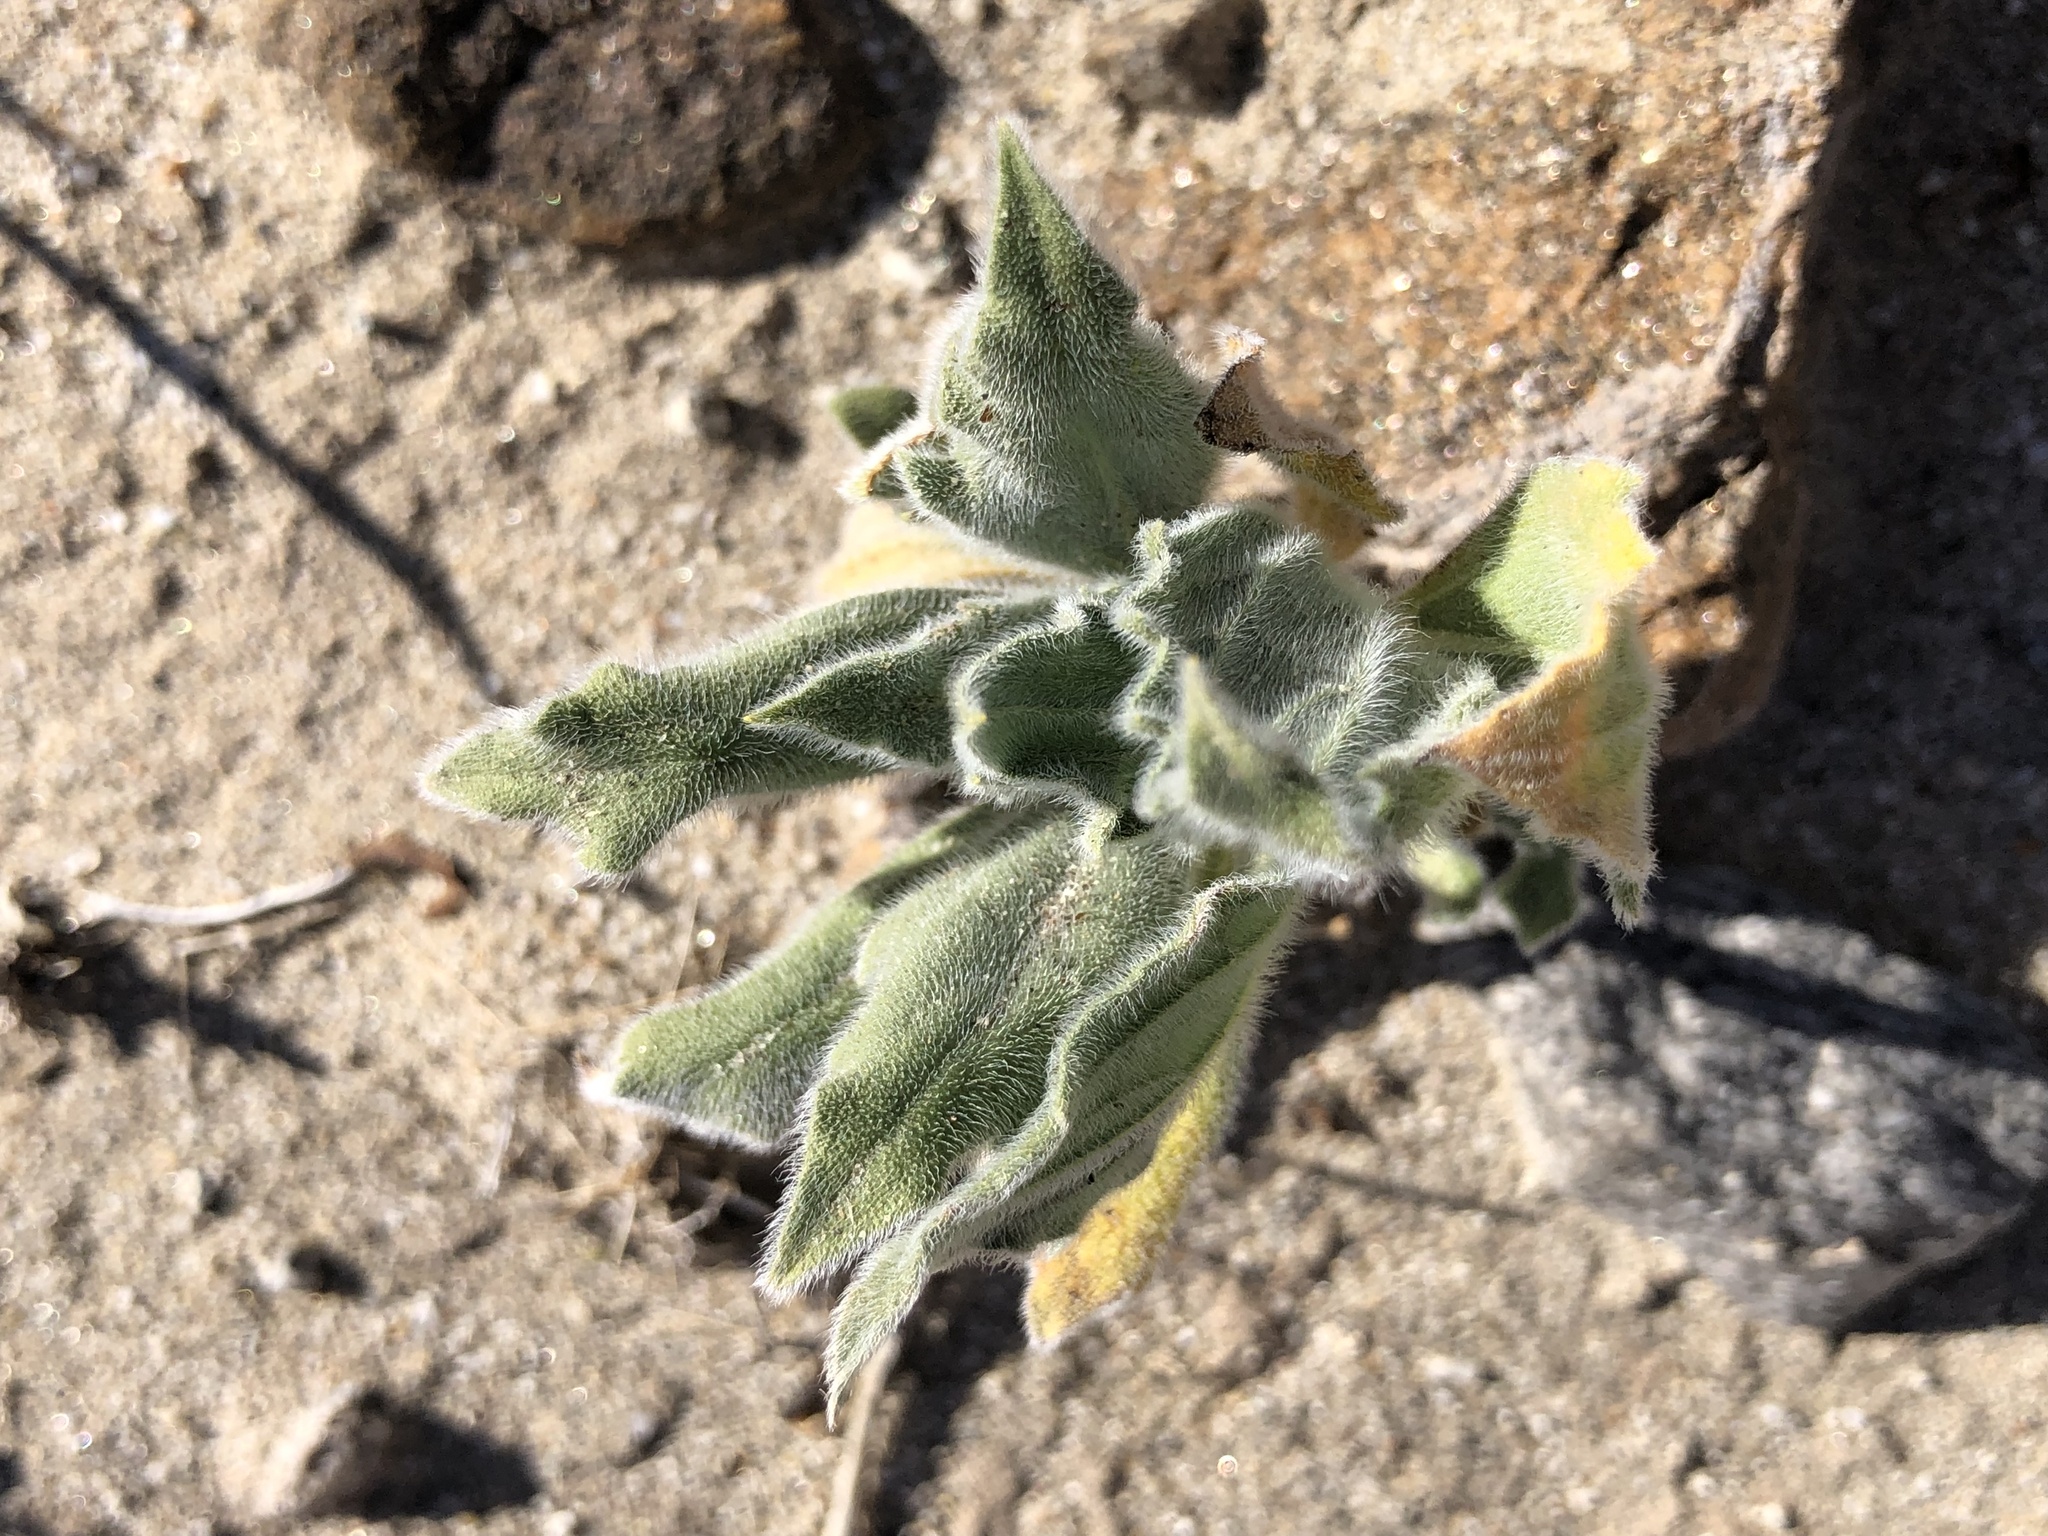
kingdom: Plantae
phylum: Tracheophyta
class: Magnoliopsida
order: Asterales
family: Asteraceae
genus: Geraea
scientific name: Geraea canescens
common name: Desert-gold
